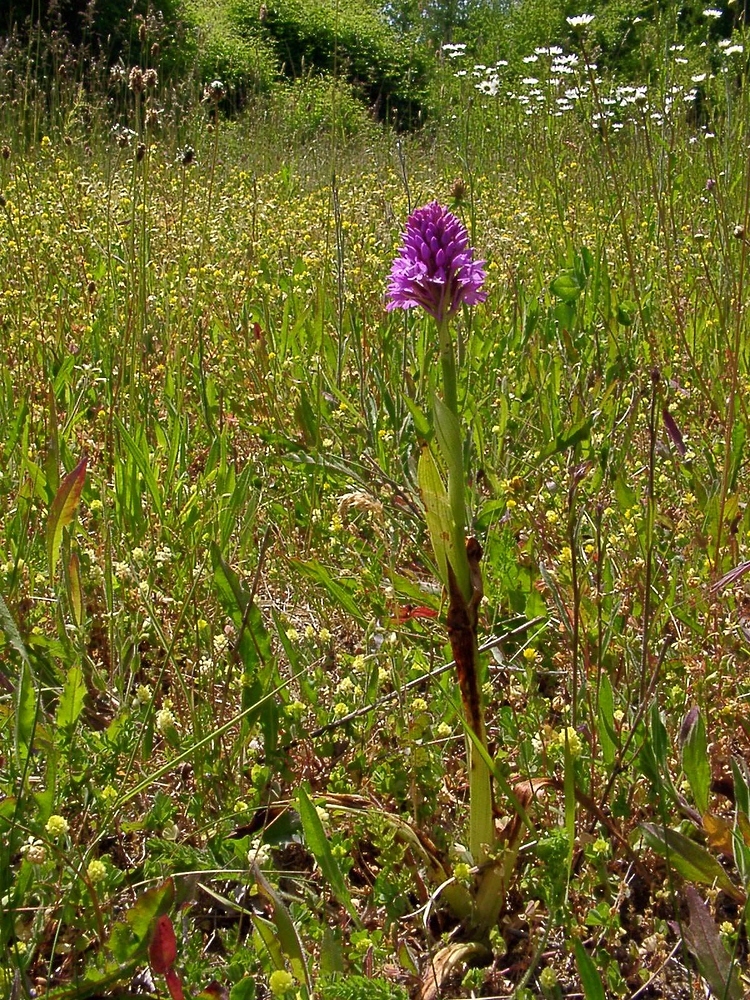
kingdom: Plantae
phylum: Tracheophyta
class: Liliopsida
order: Asparagales
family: Orchidaceae
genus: Anacamptis
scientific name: Anacamptis pyramidalis
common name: Pyramidal orchid
